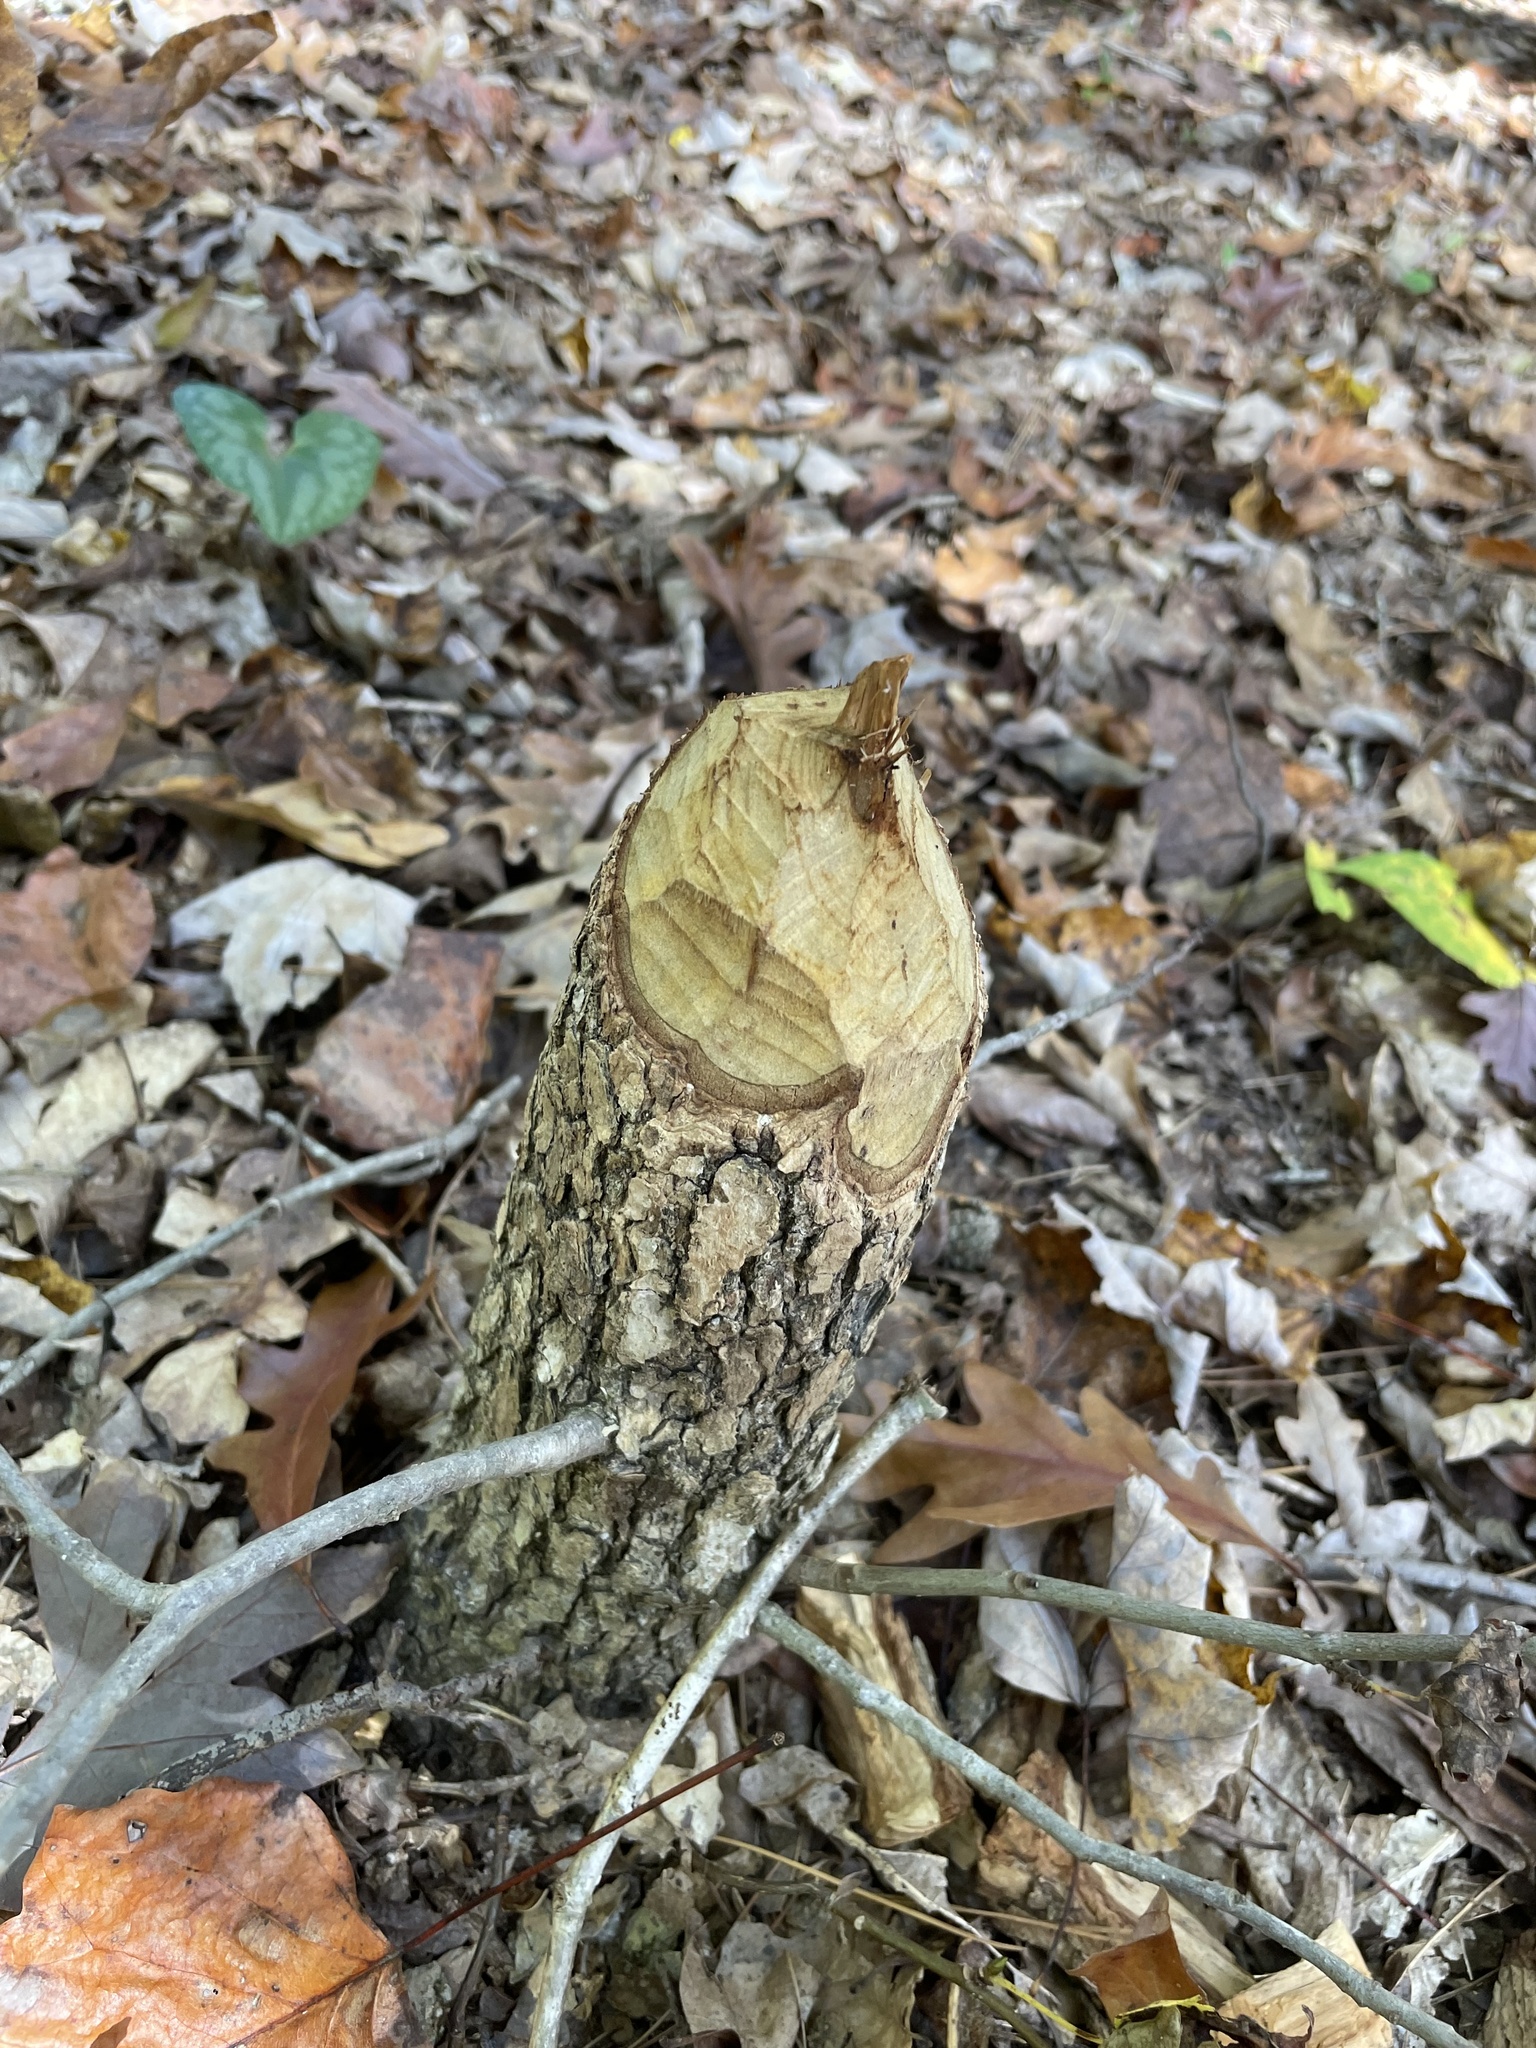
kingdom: Animalia
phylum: Chordata
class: Mammalia
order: Rodentia
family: Castoridae
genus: Castor
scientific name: Castor canadensis
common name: American beaver
